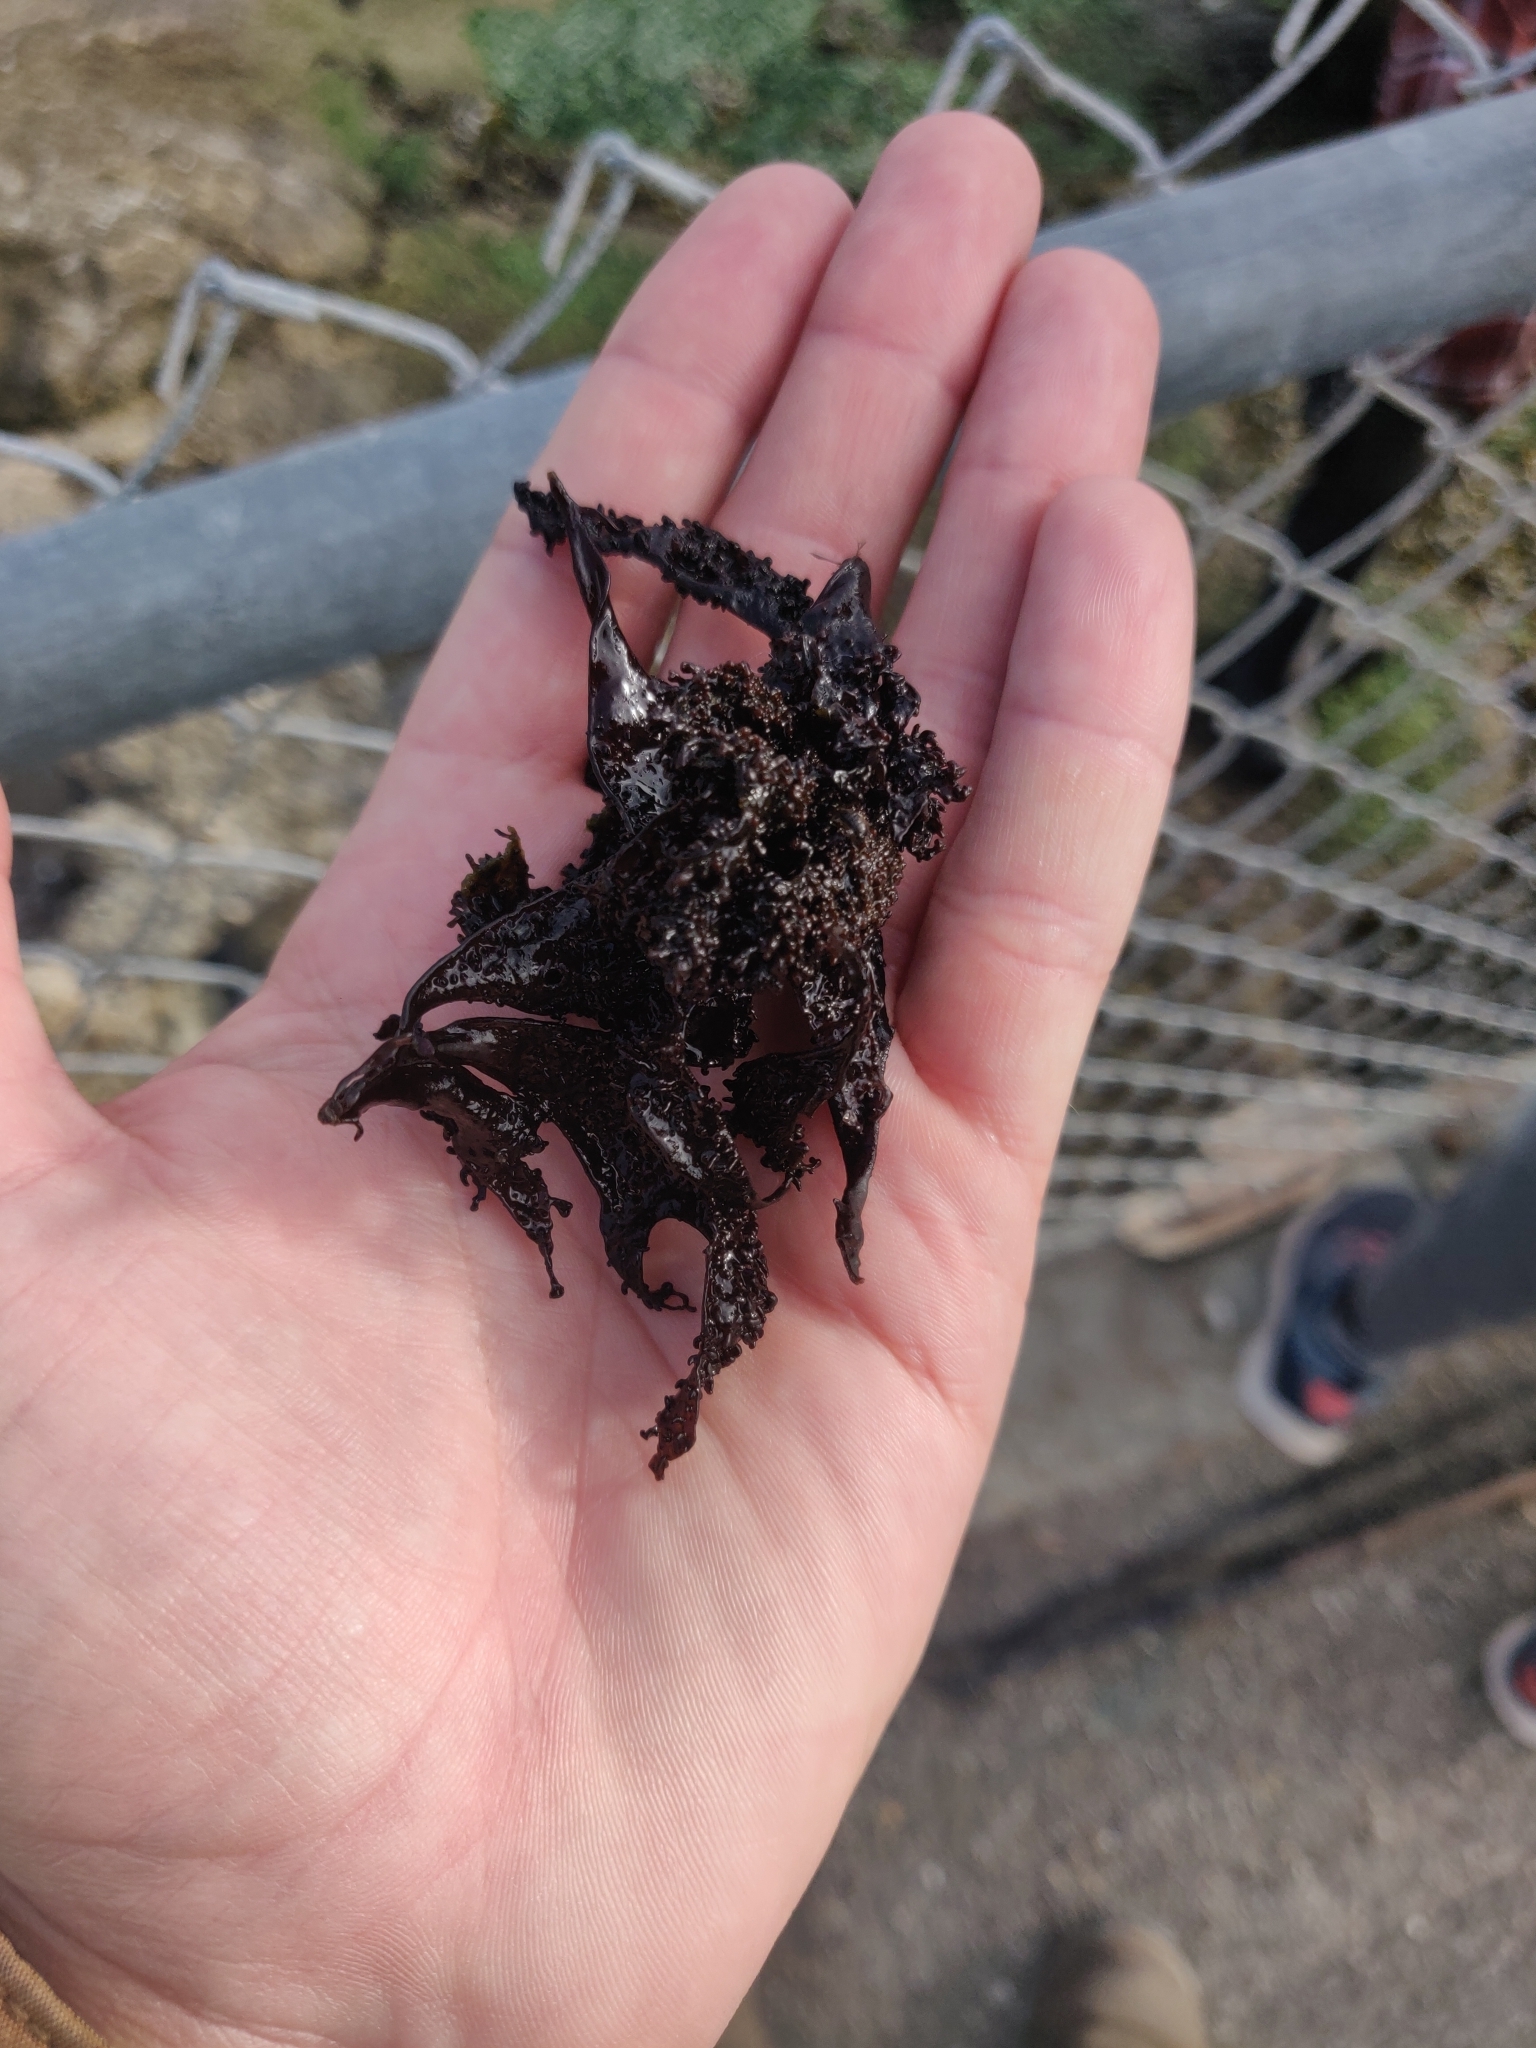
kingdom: Plantae
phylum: Rhodophyta
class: Florideophyceae
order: Gigartinales
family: Phyllophoraceae
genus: Mastocarpus
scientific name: Mastocarpus papillatus
